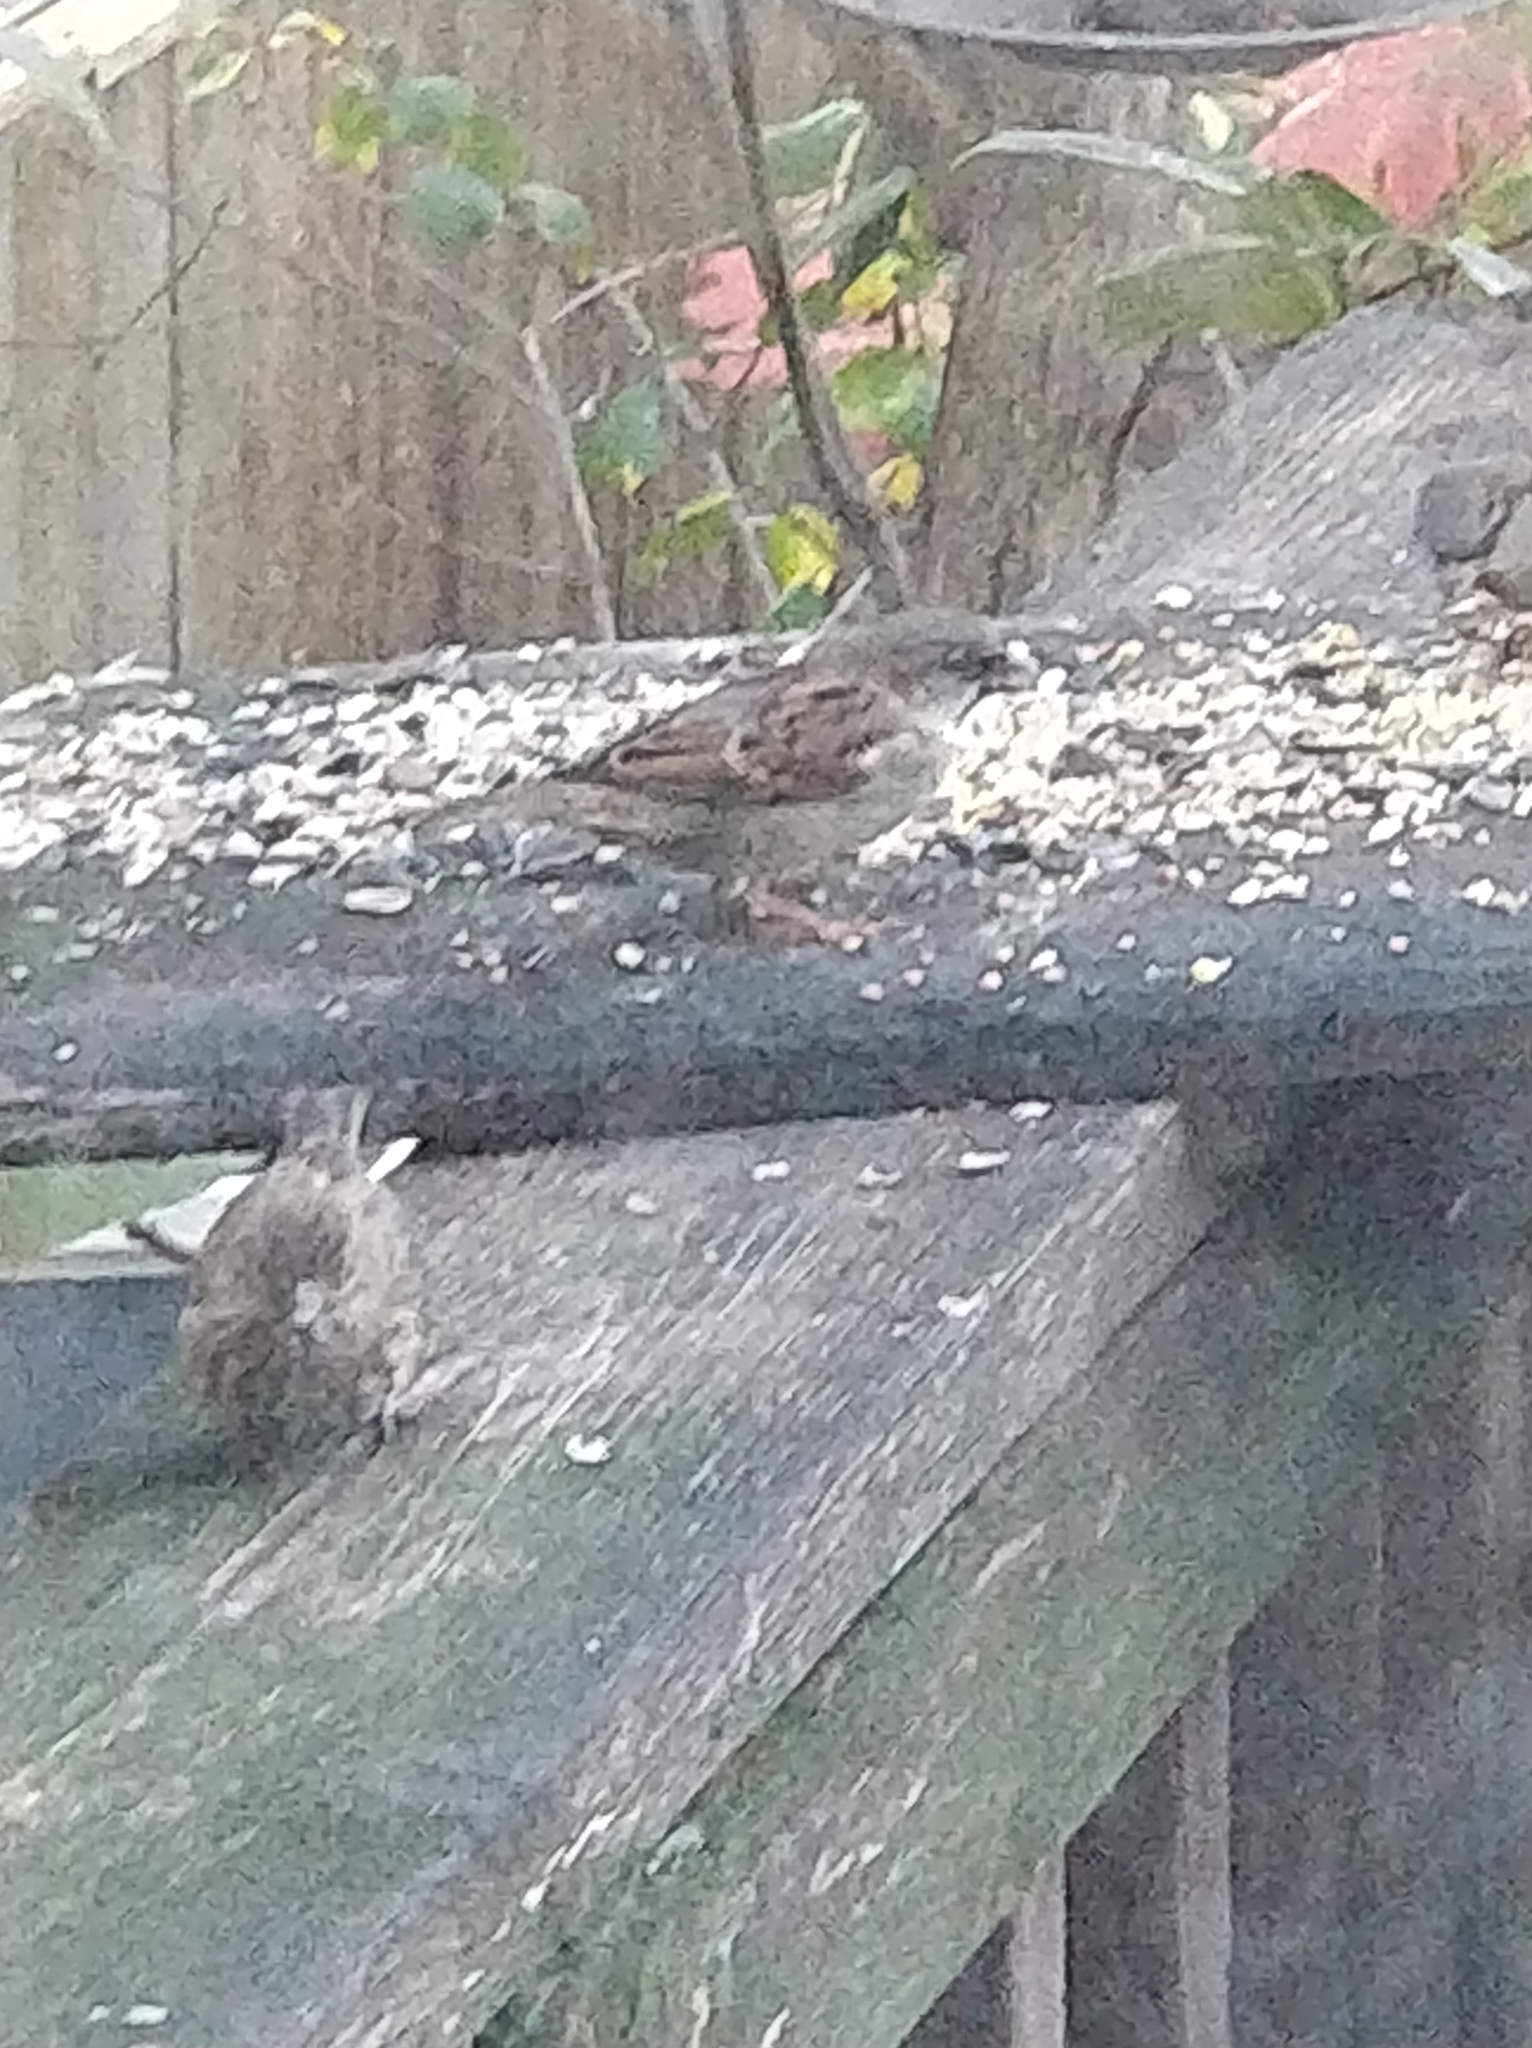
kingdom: Animalia
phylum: Chordata
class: Aves
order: Passeriformes
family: Passeridae
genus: Passer
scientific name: Passer domesticus
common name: House sparrow
